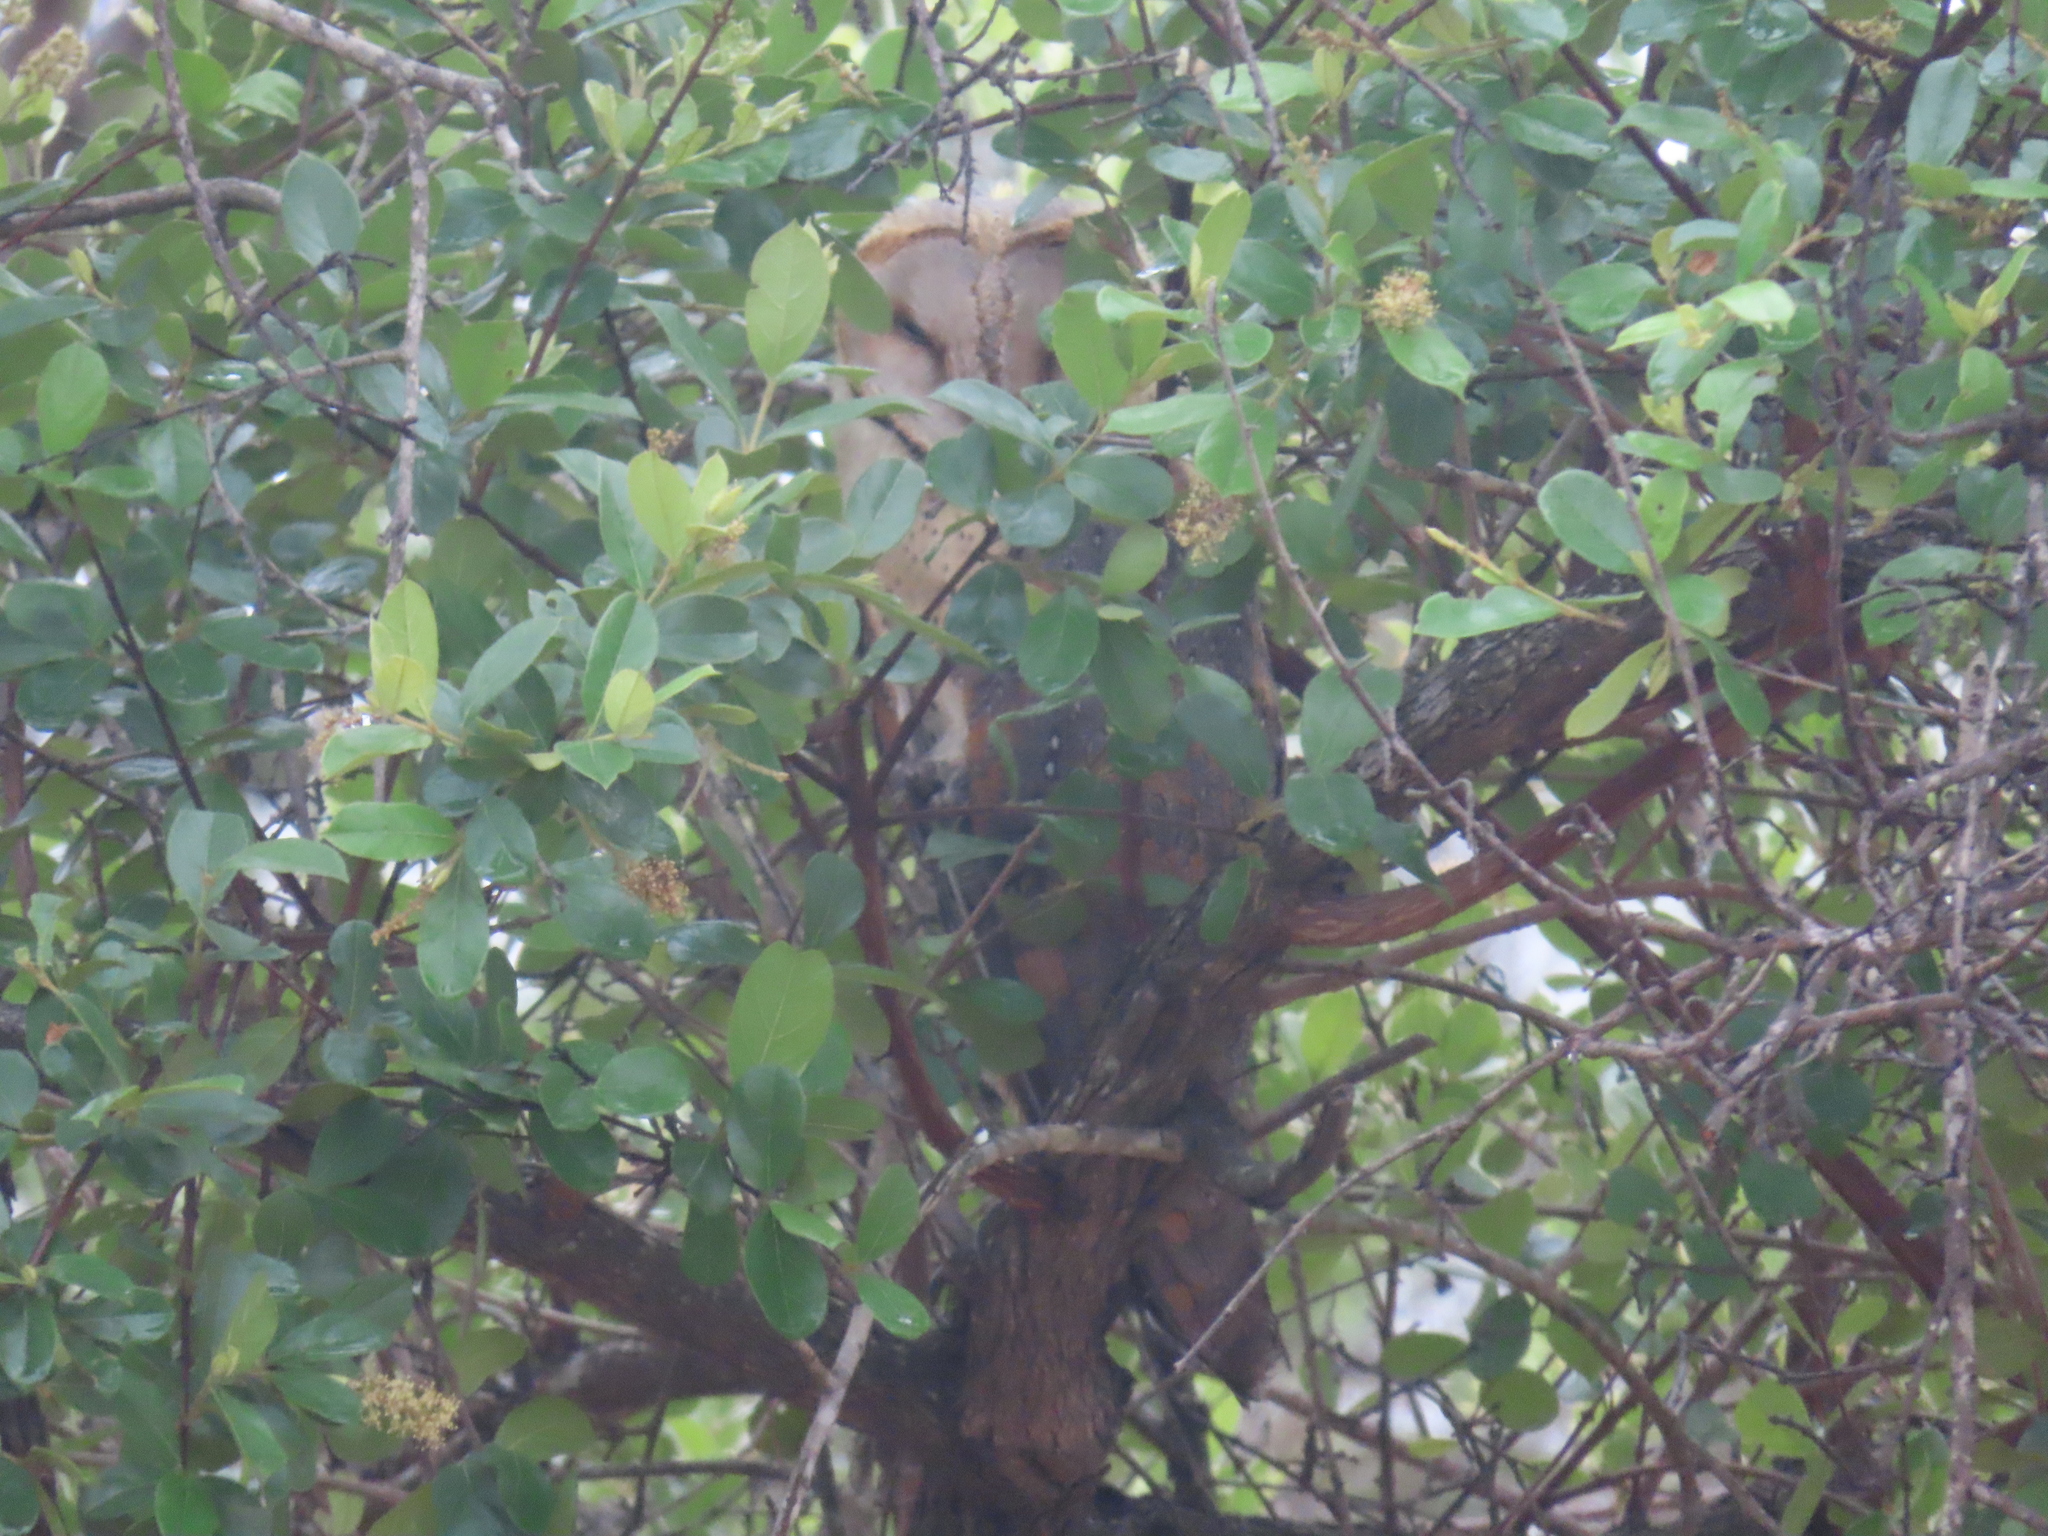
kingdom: Animalia
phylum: Chordata
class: Aves
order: Strigiformes
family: Tytonidae
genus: Tyto
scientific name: Tyto alba
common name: Barn owl
